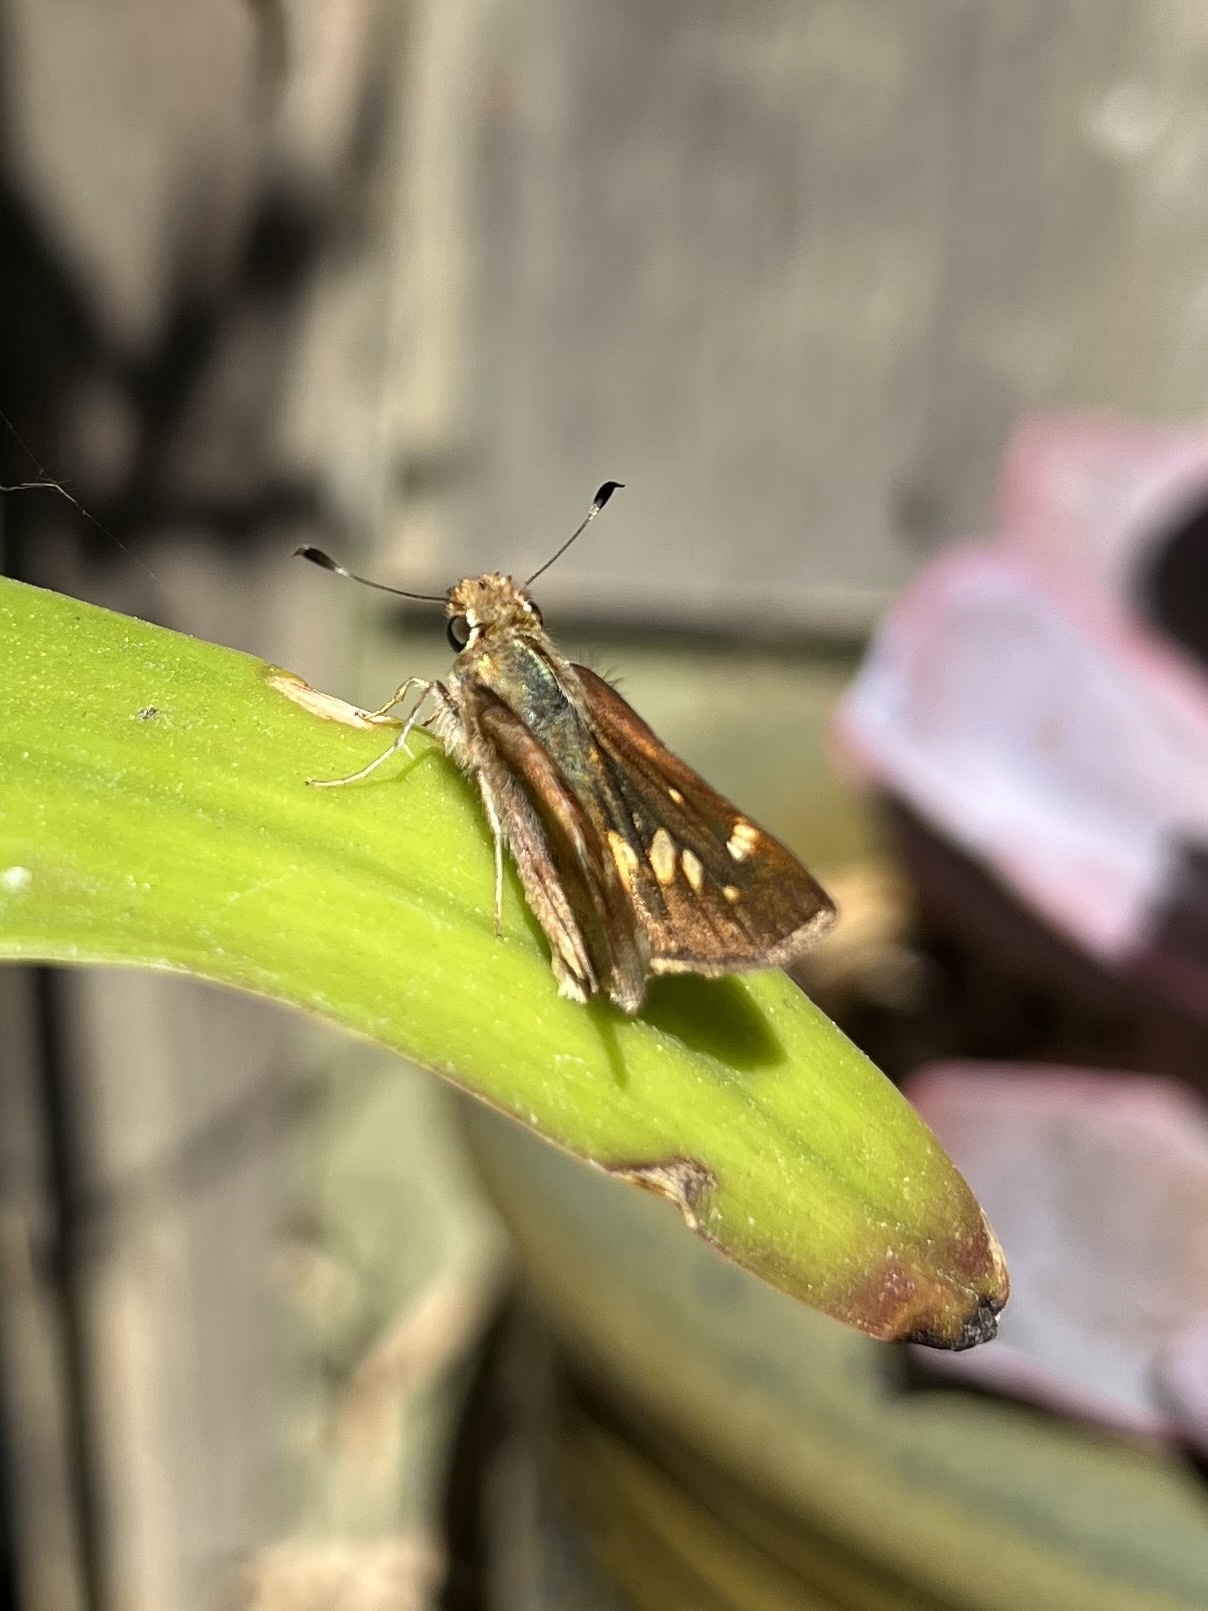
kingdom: Animalia
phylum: Arthropoda
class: Insecta
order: Lepidoptera
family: Hesperiidae
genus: Lon
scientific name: Lon melane
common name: Umber skipper
